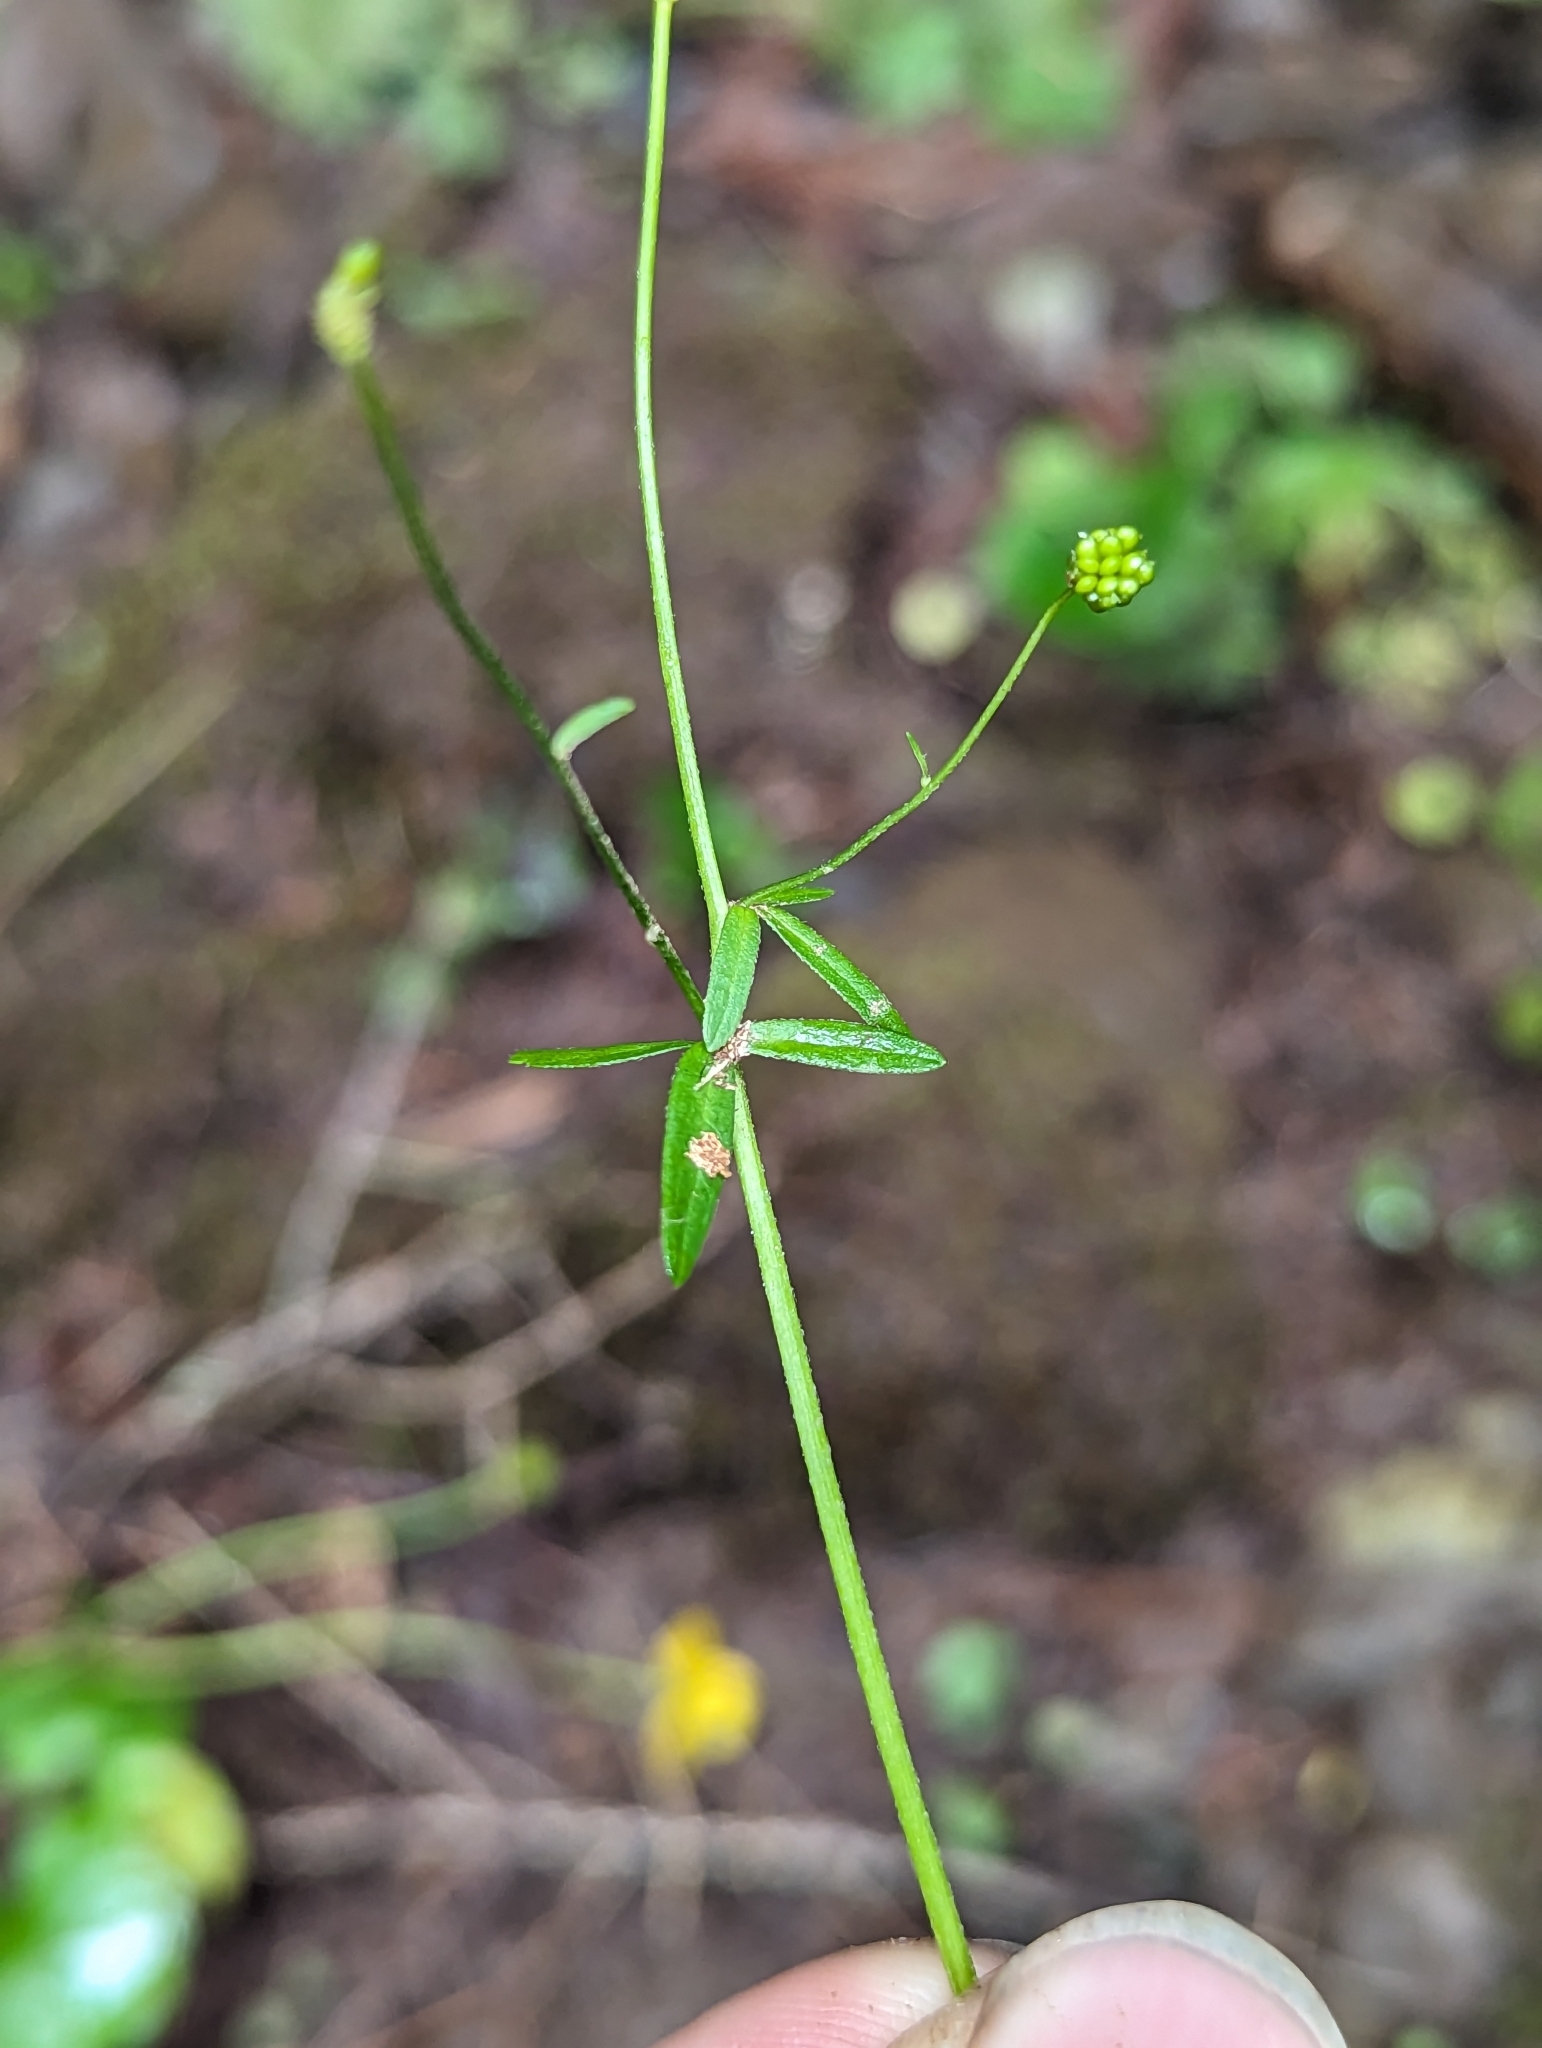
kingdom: Plantae
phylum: Tracheophyta
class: Magnoliopsida
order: Ranunculales
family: Ranunculaceae
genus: Ranunculus
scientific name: Ranunculus abortivus
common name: Early wood buttercup
